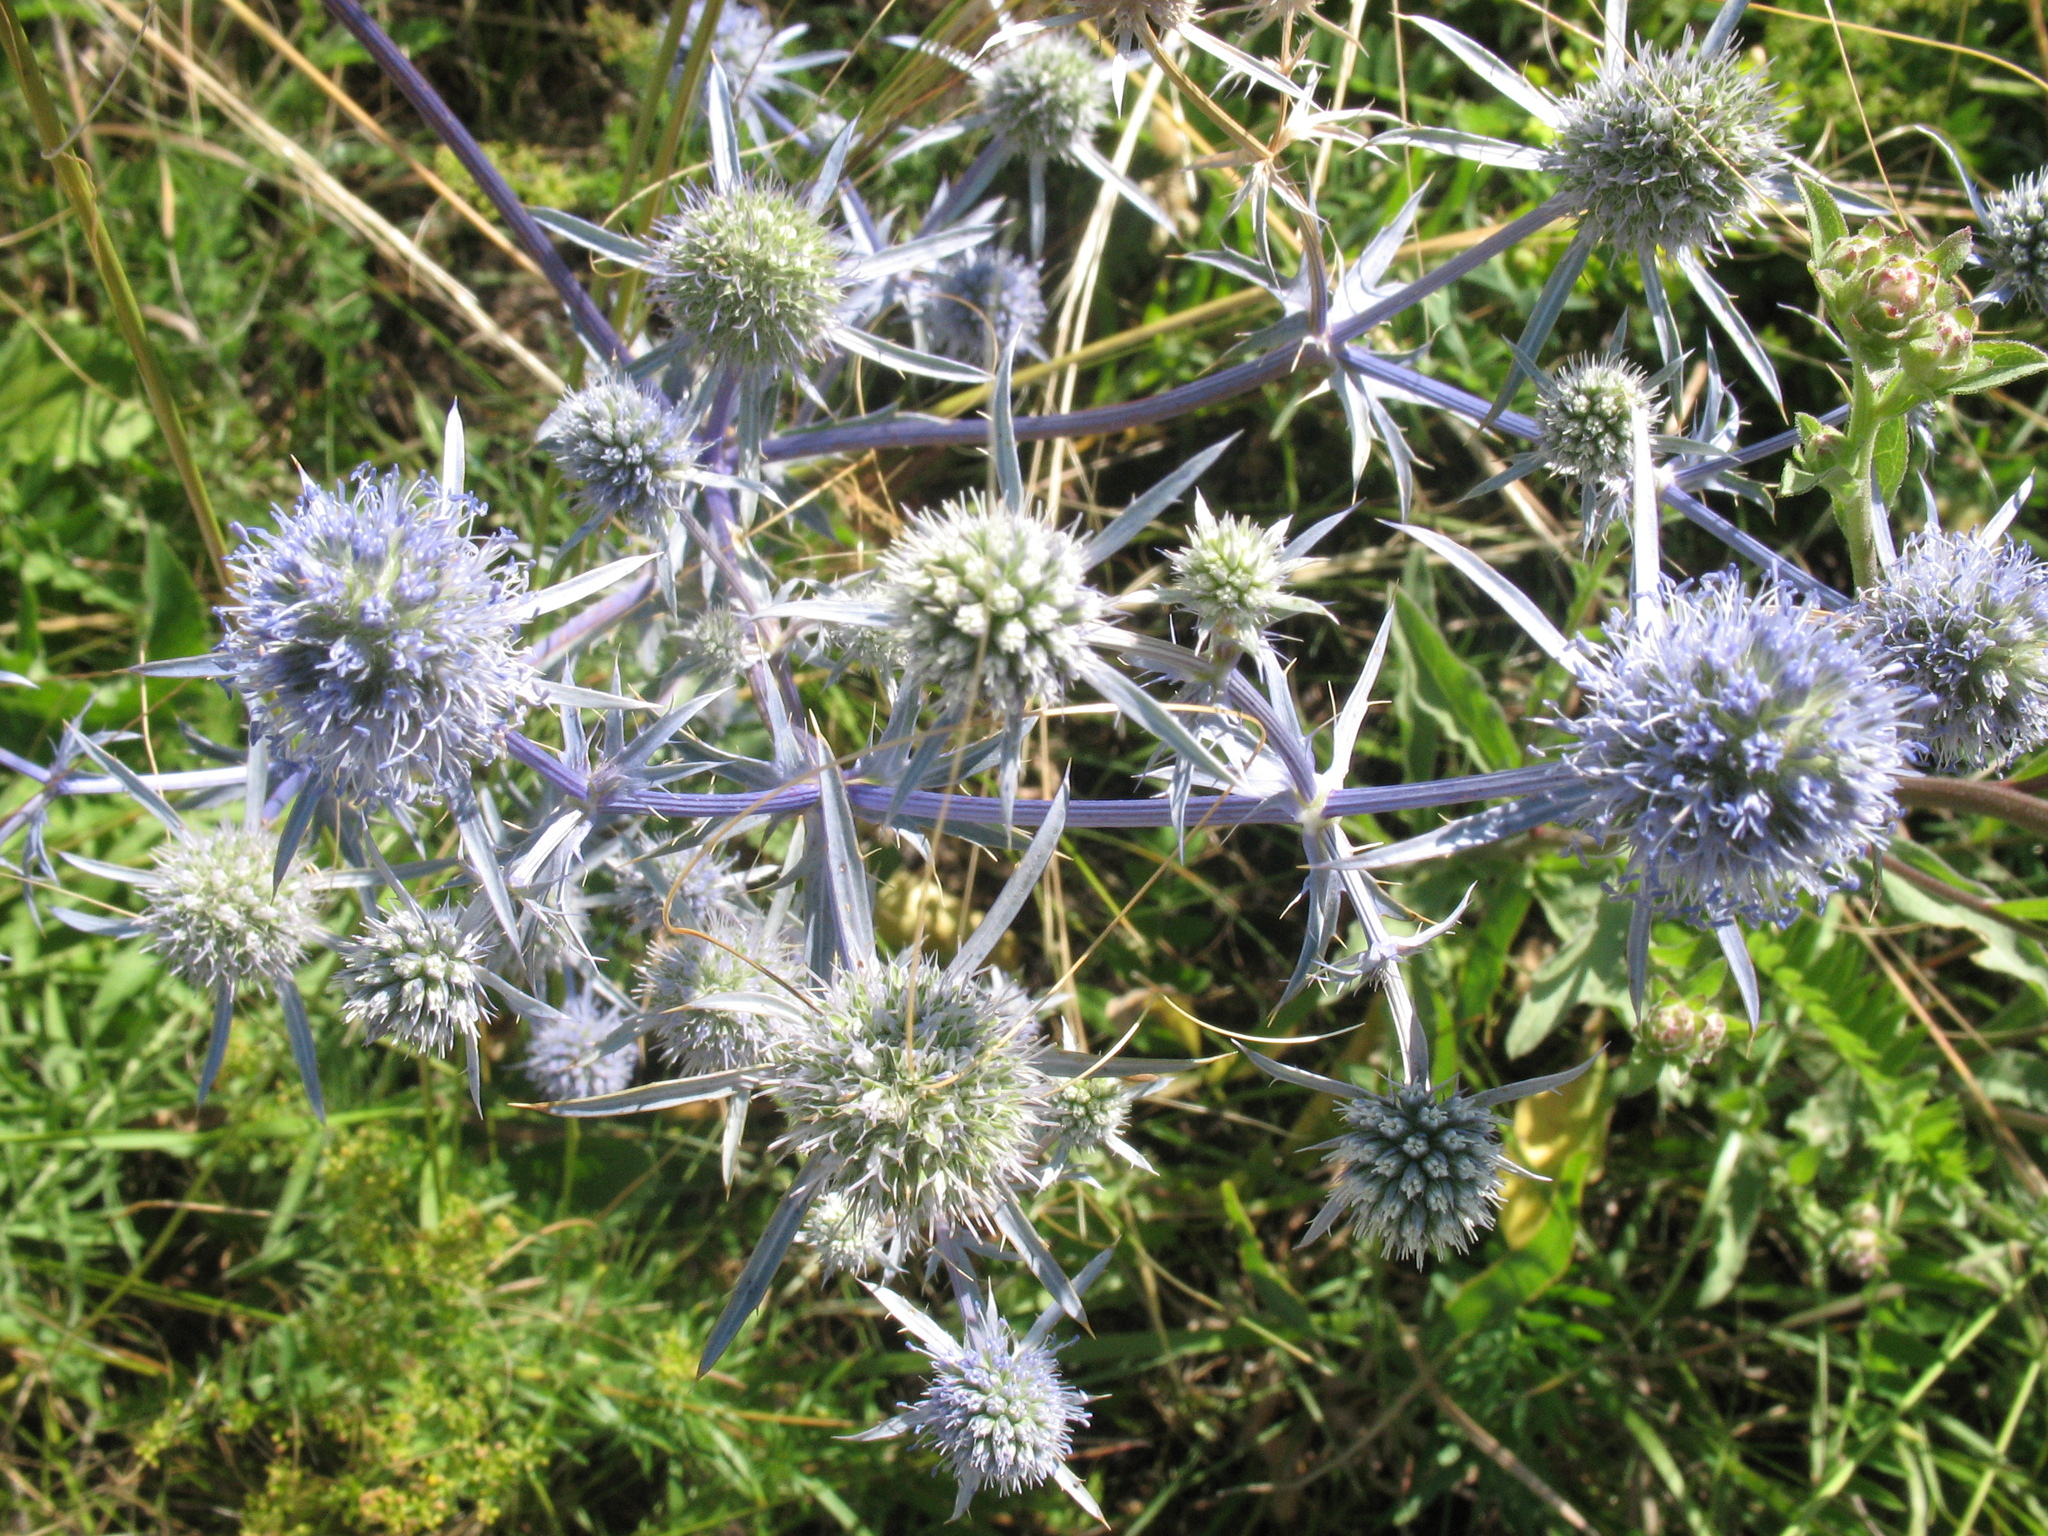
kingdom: Plantae
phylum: Tracheophyta
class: Magnoliopsida
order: Apiales
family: Apiaceae
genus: Eryngium
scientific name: Eryngium planum
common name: Blue eryngo
